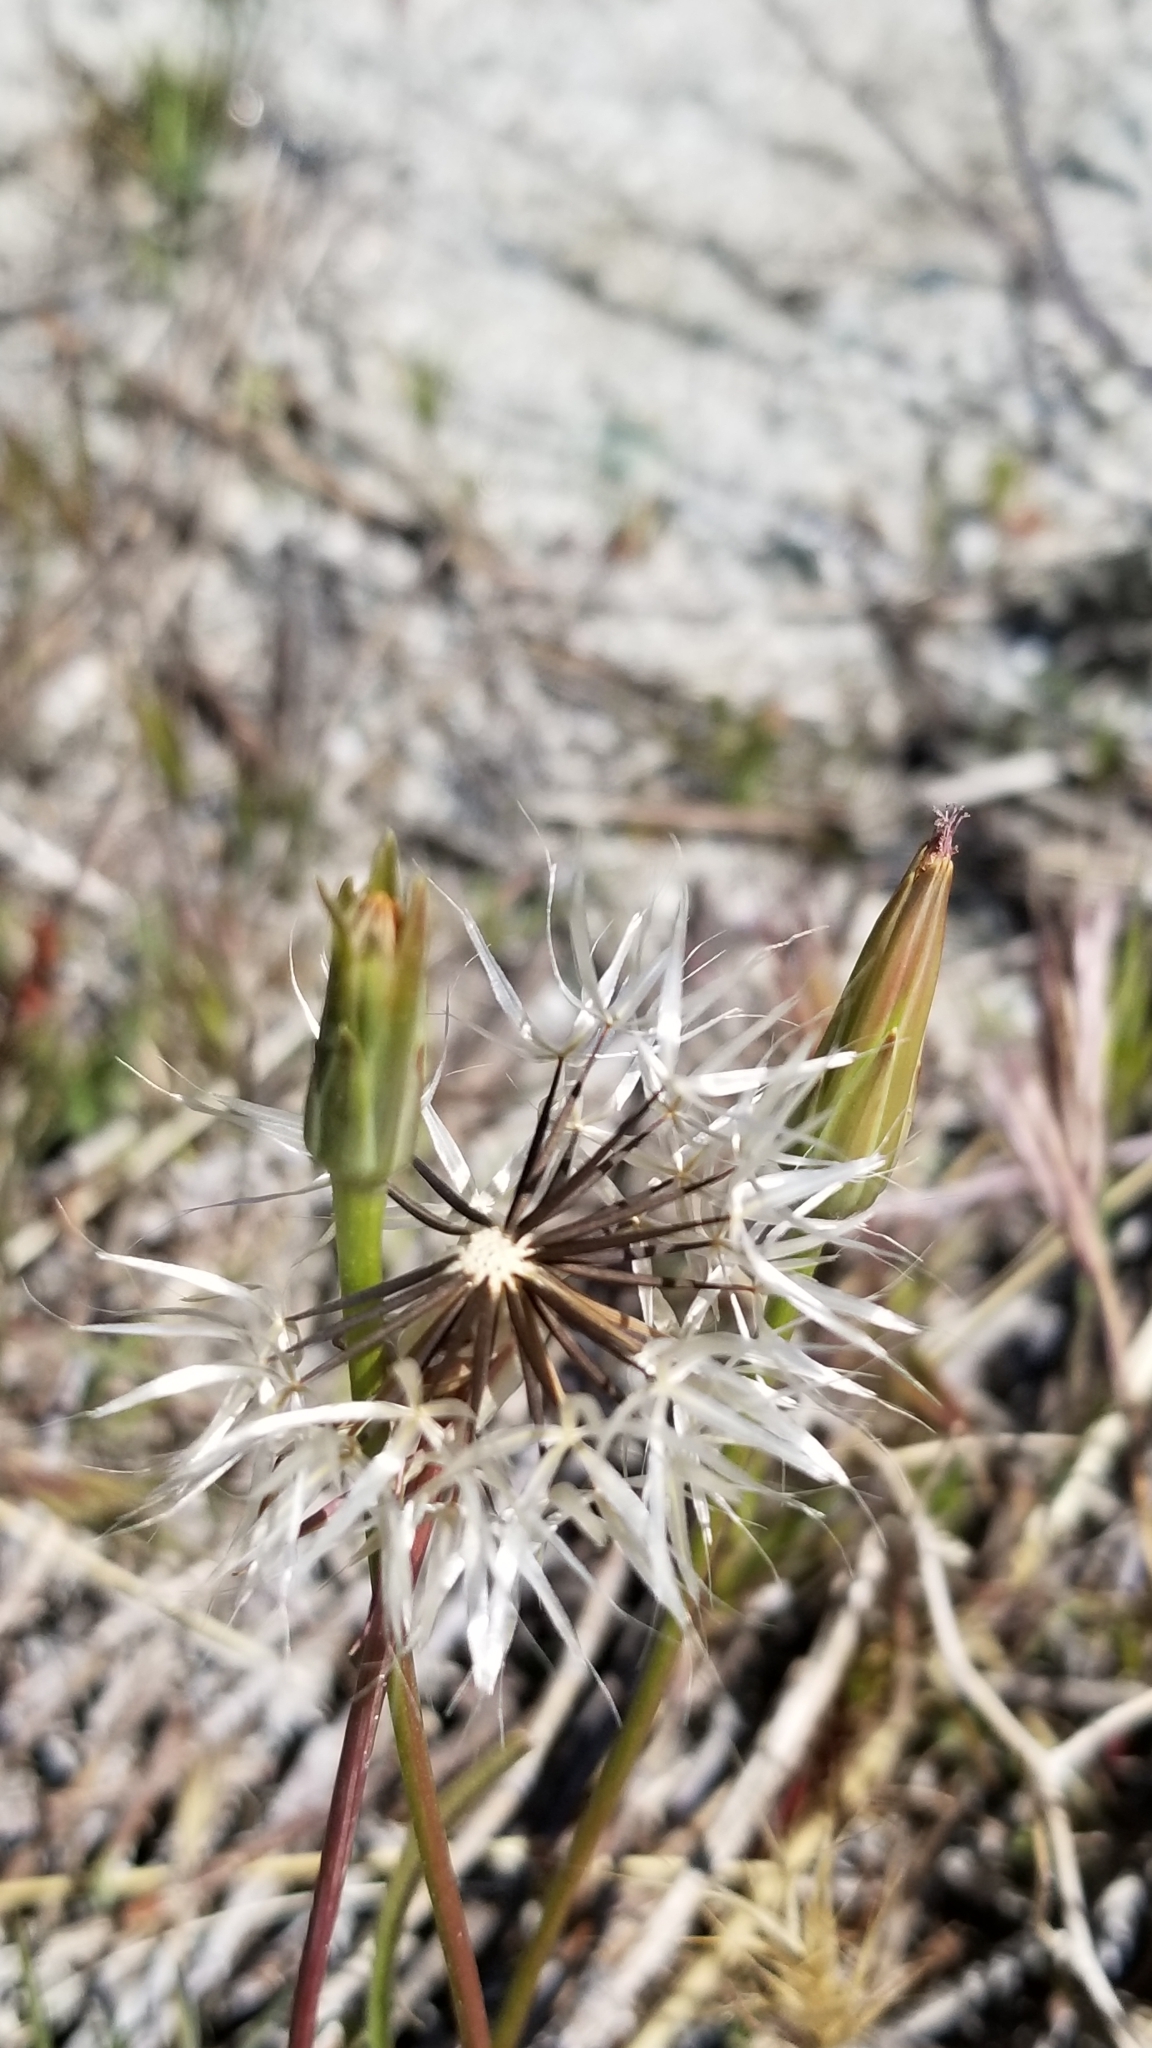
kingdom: Plantae
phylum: Tracheophyta
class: Magnoliopsida
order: Asterales
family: Asteraceae
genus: Microseris
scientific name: Microseris lindleyi
